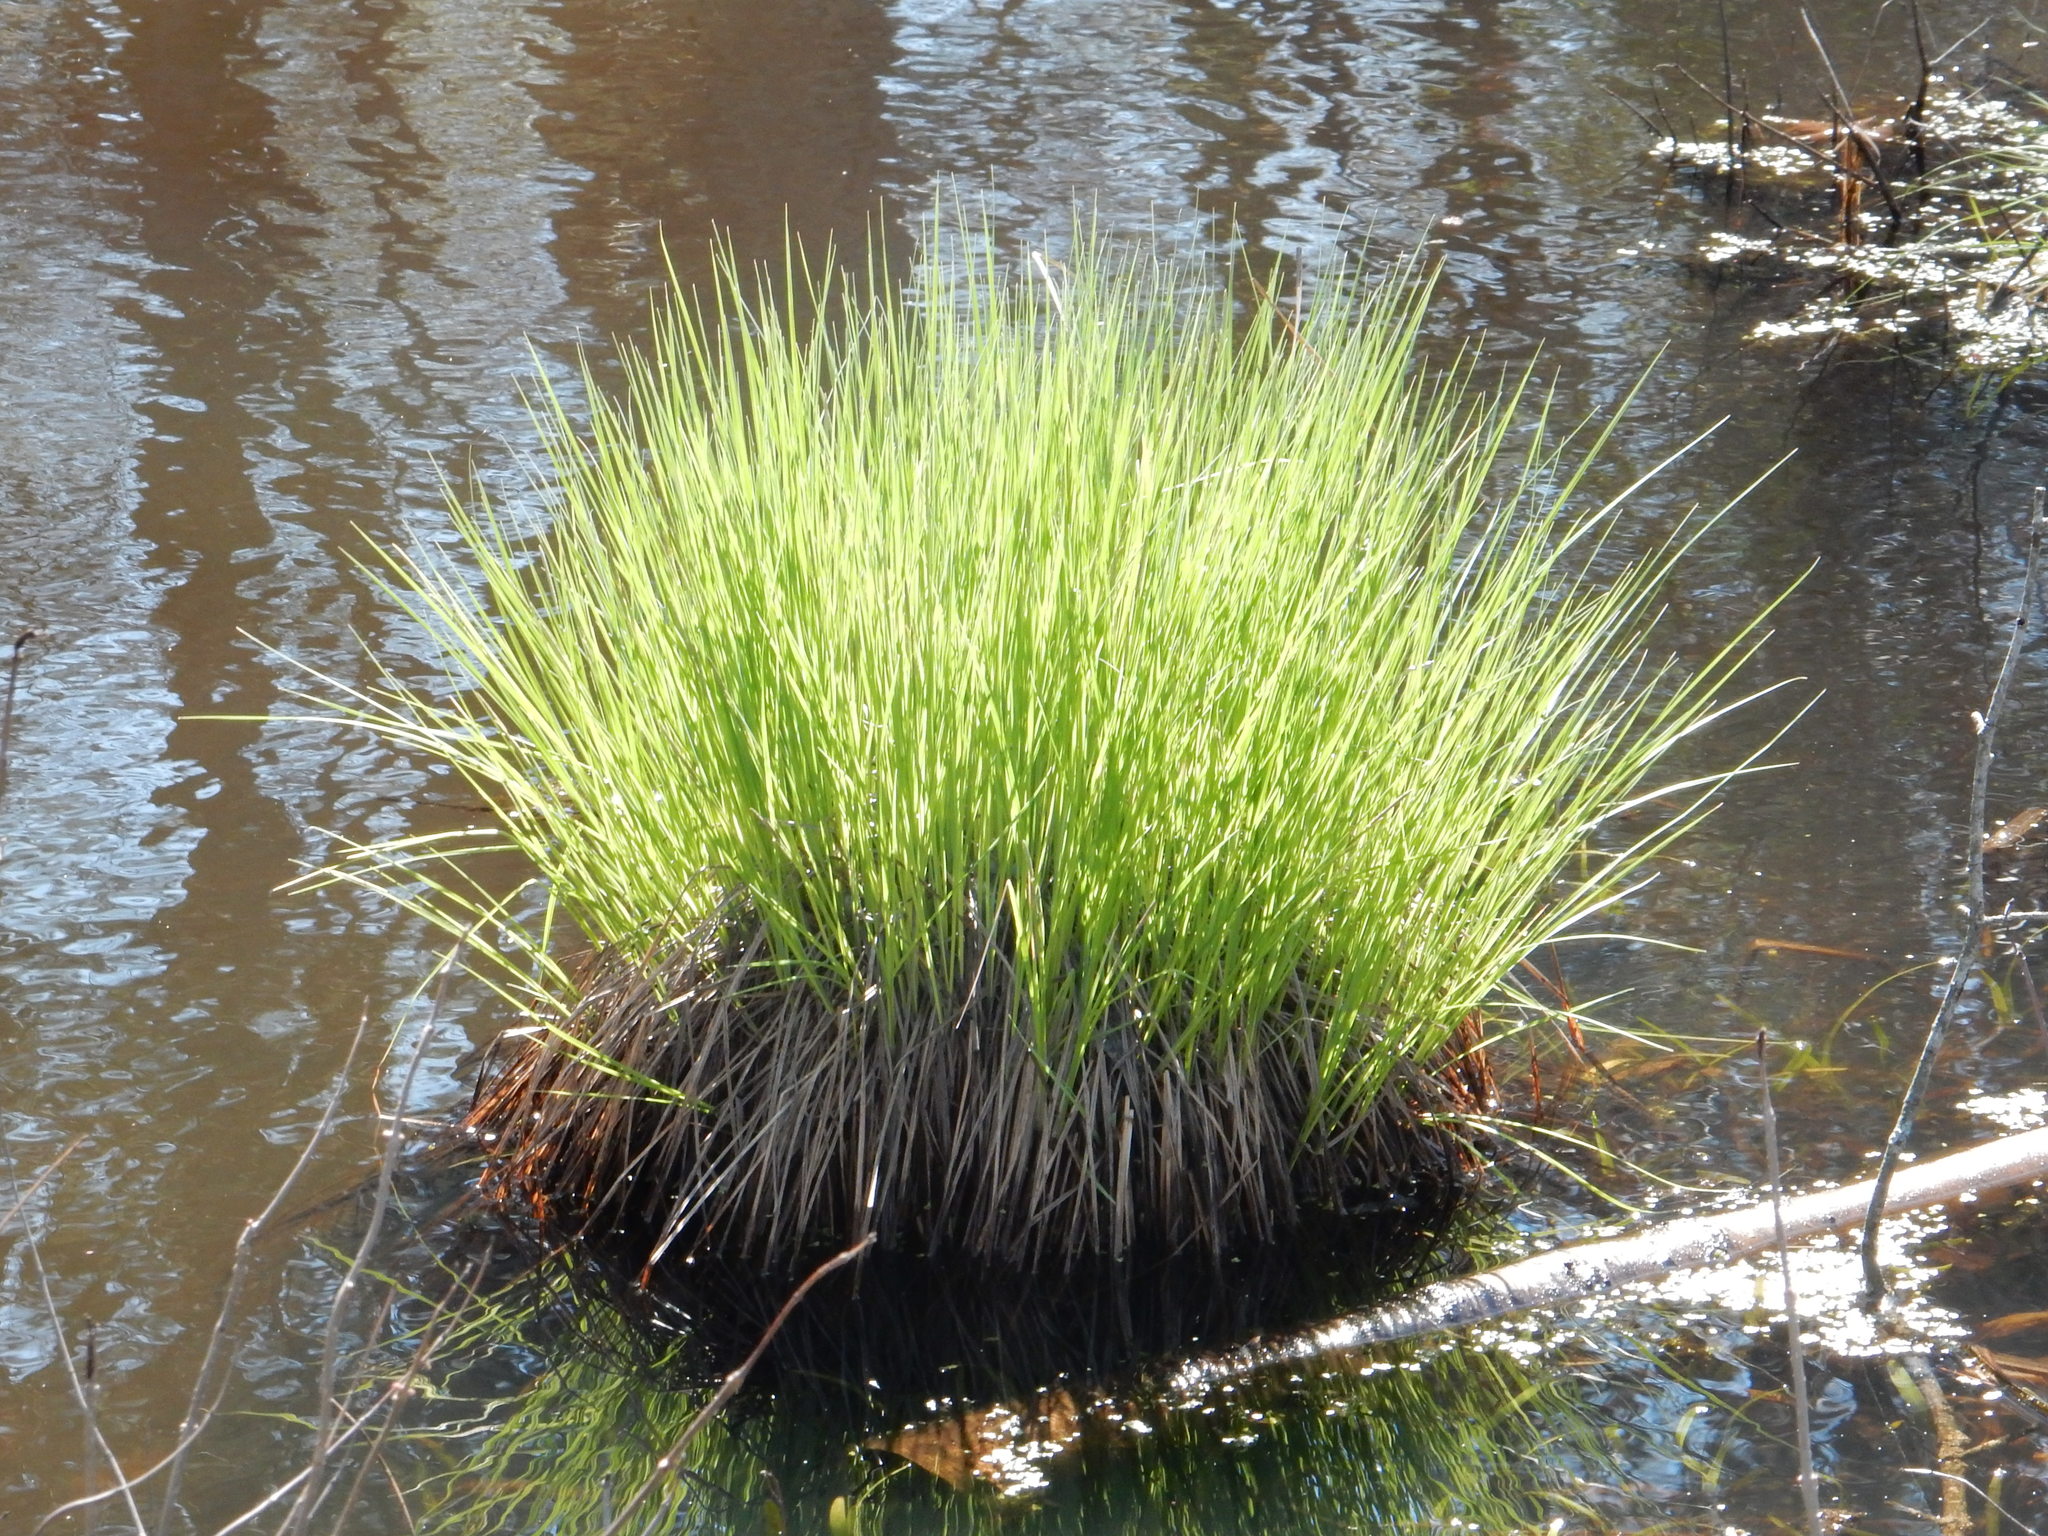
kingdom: Plantae
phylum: Tracheophyta
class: Liliopsida
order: Poales
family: Cyperaceae
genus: Carex
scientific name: Carex stricta
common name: Hummock sedge
